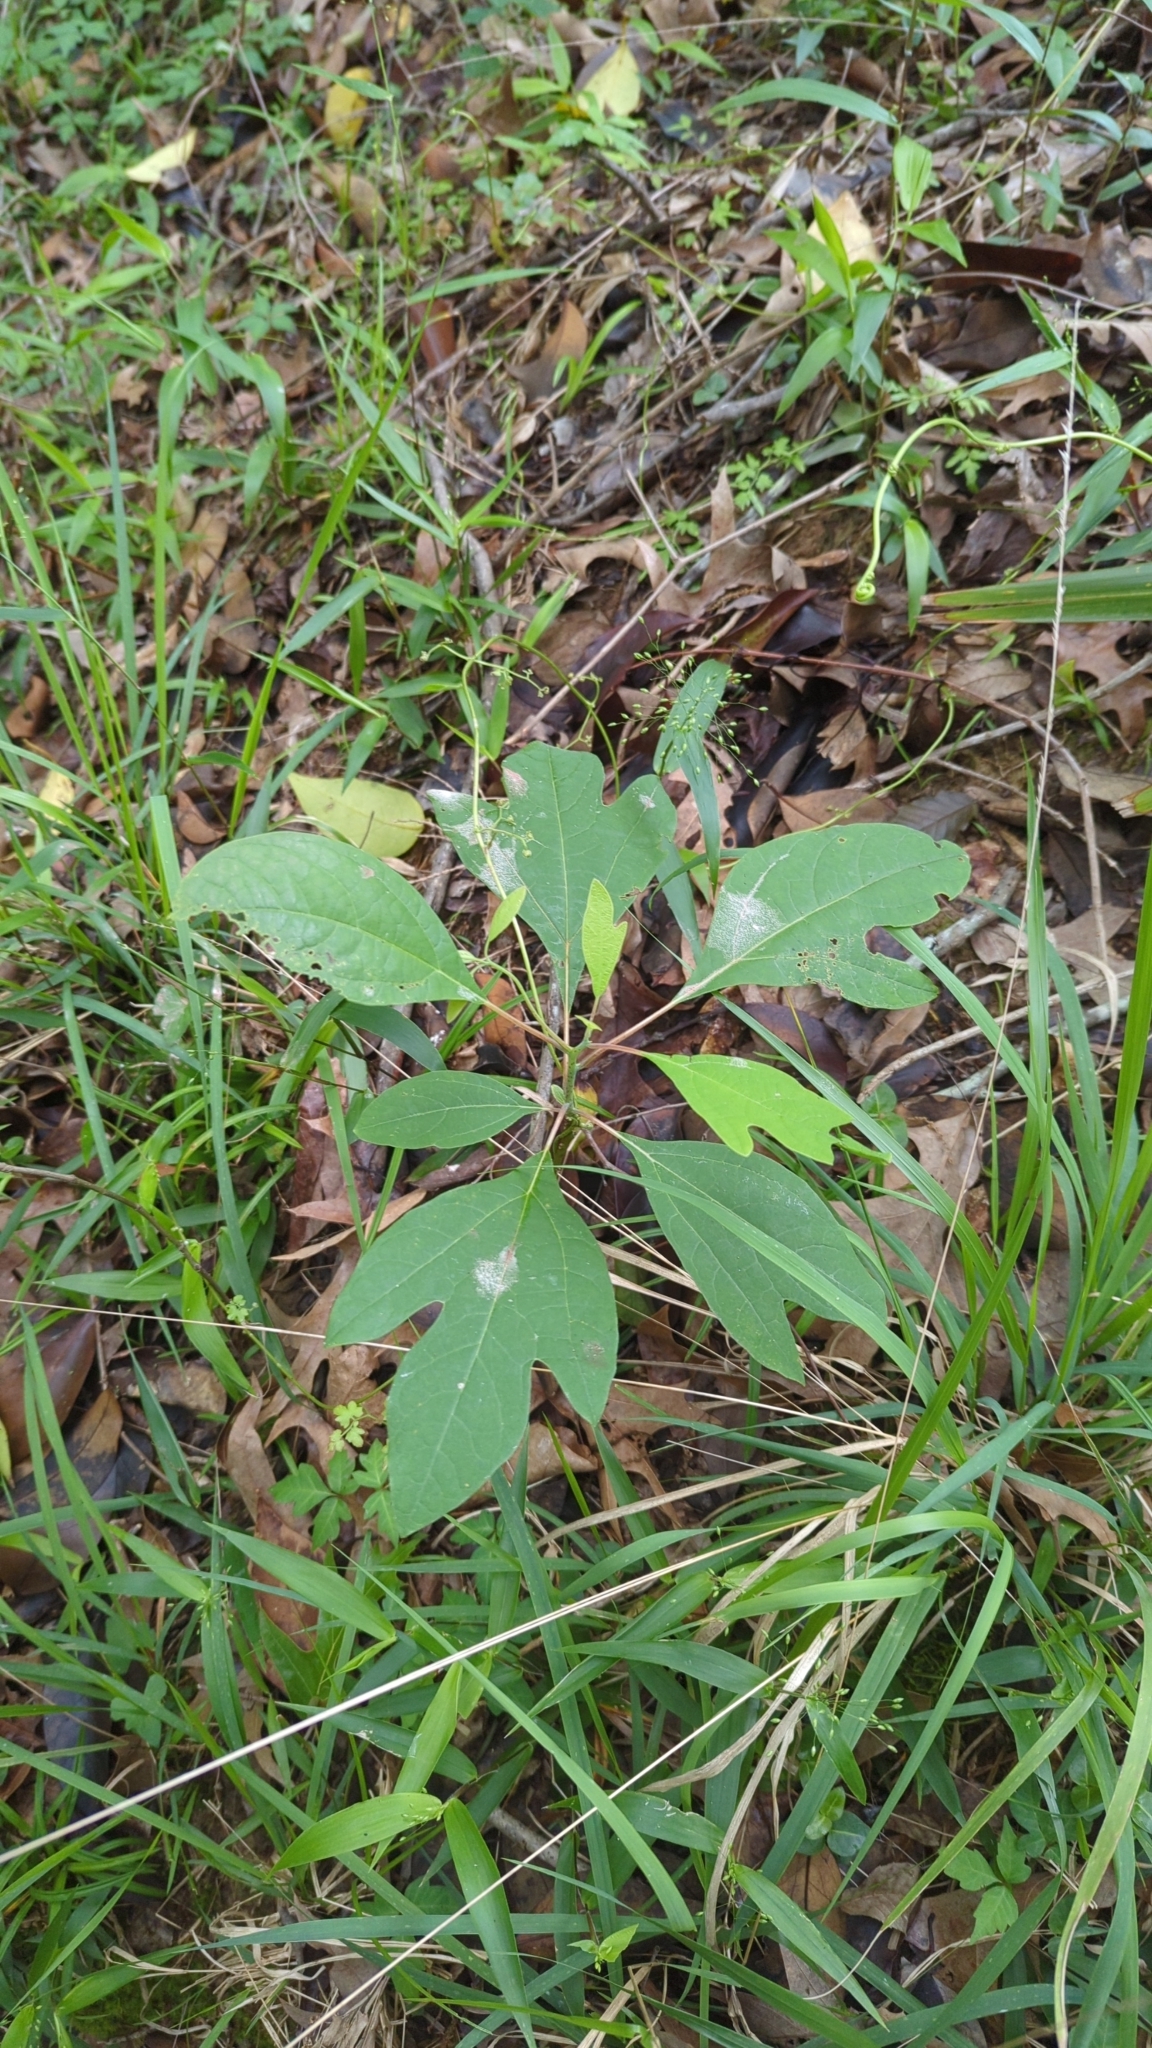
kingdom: Plantae
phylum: Tracheophyta
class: Magnoliopsida
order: Laurales
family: Lauraceae
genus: Sassafras
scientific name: Sassafras albidum
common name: Sassafras
